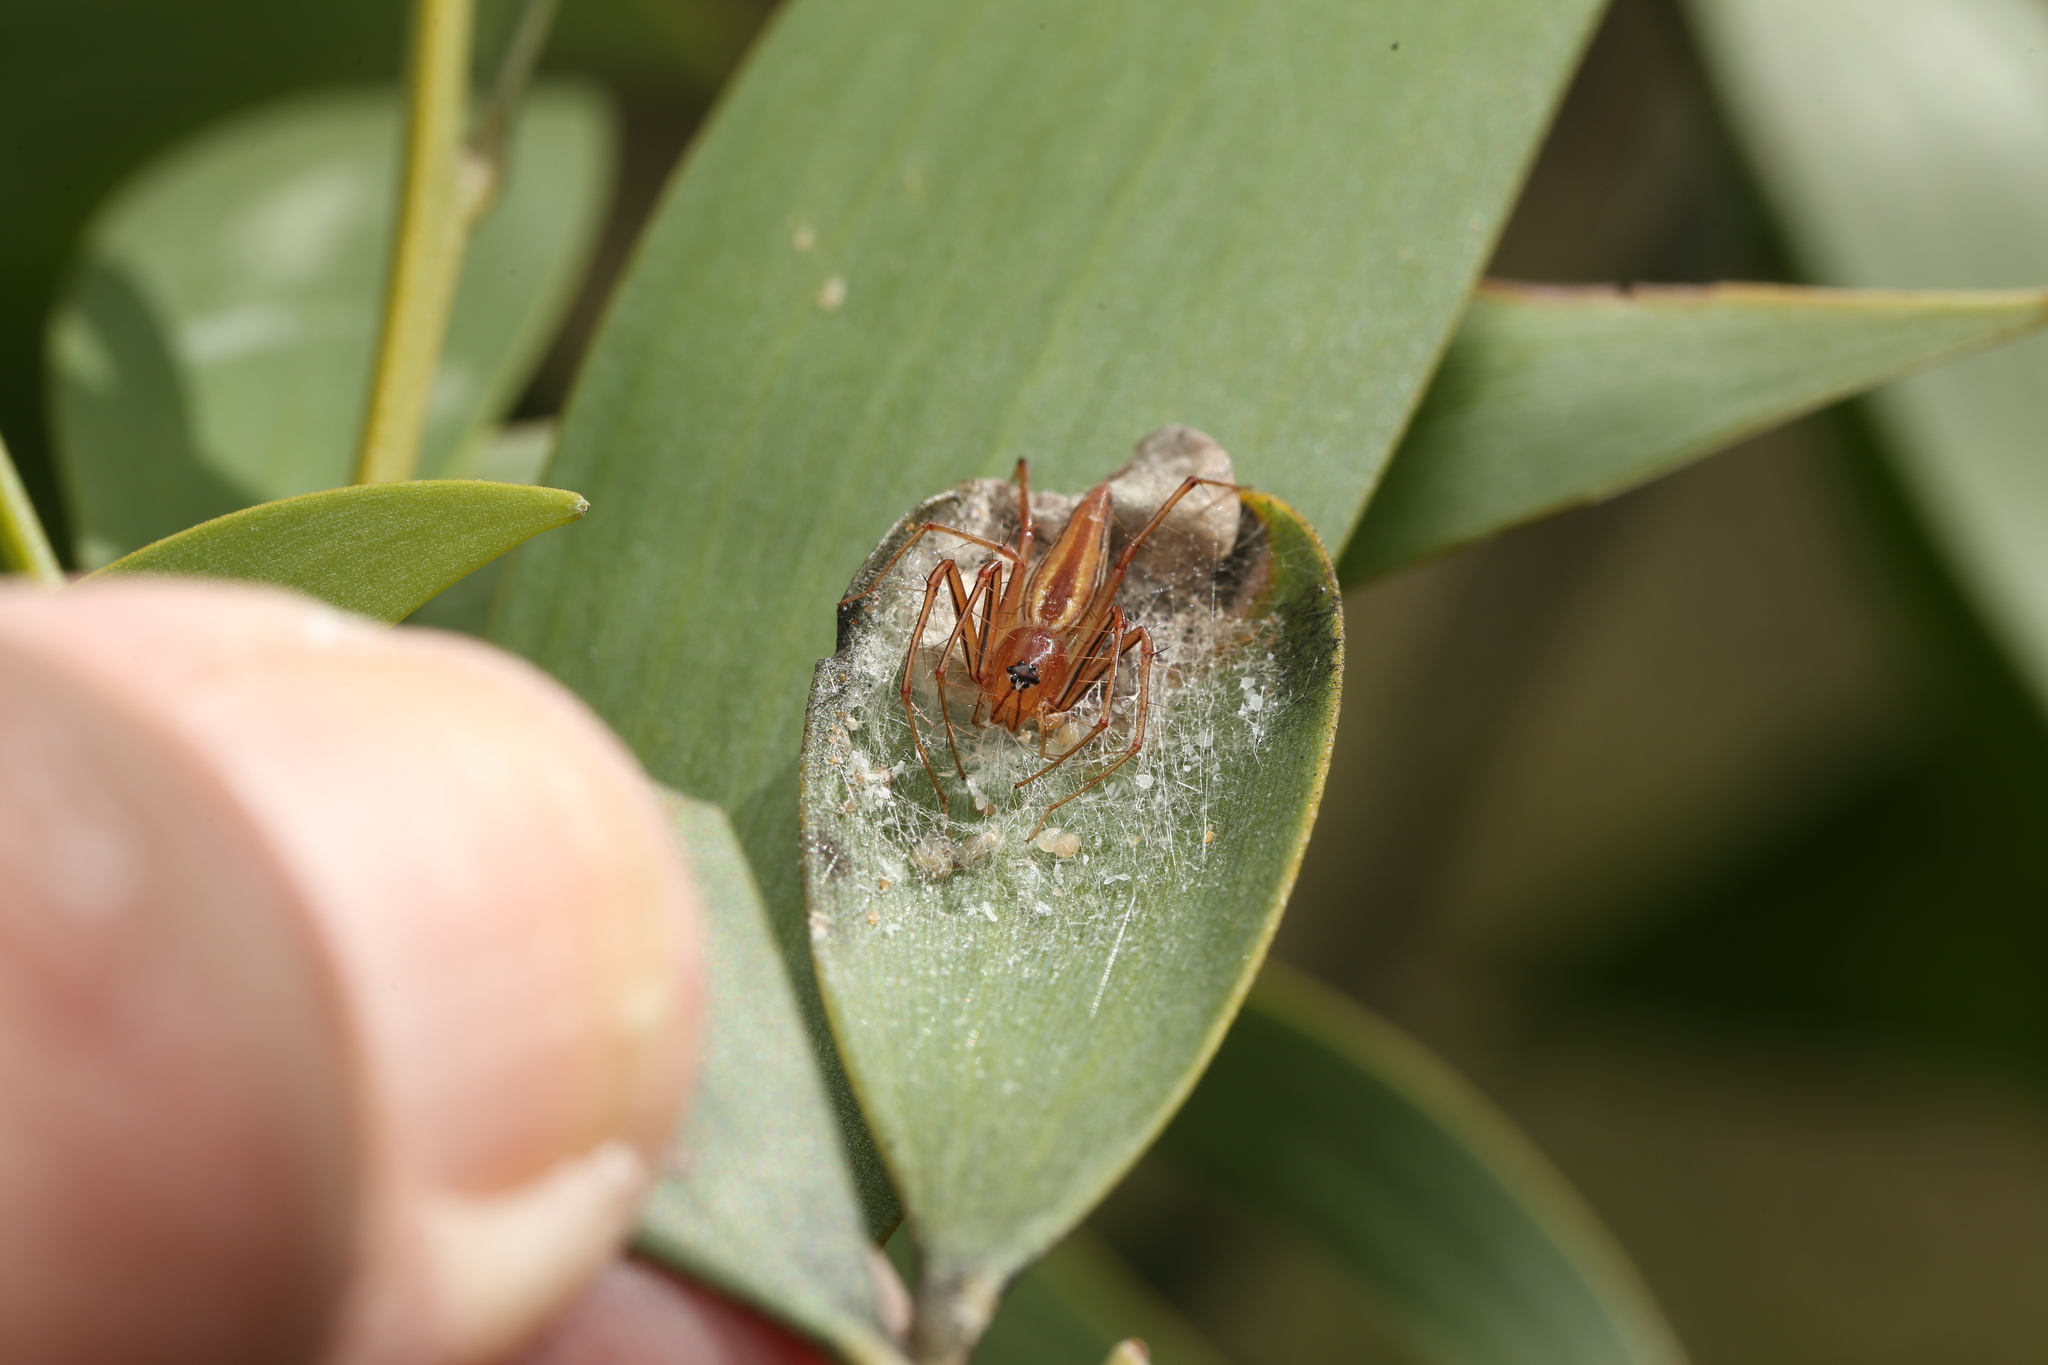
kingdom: Animalia
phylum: Arthropoda
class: Arachnida
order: Araneae
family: Oxyopidae
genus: Oxyopes
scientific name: Oxyopes macilentus
